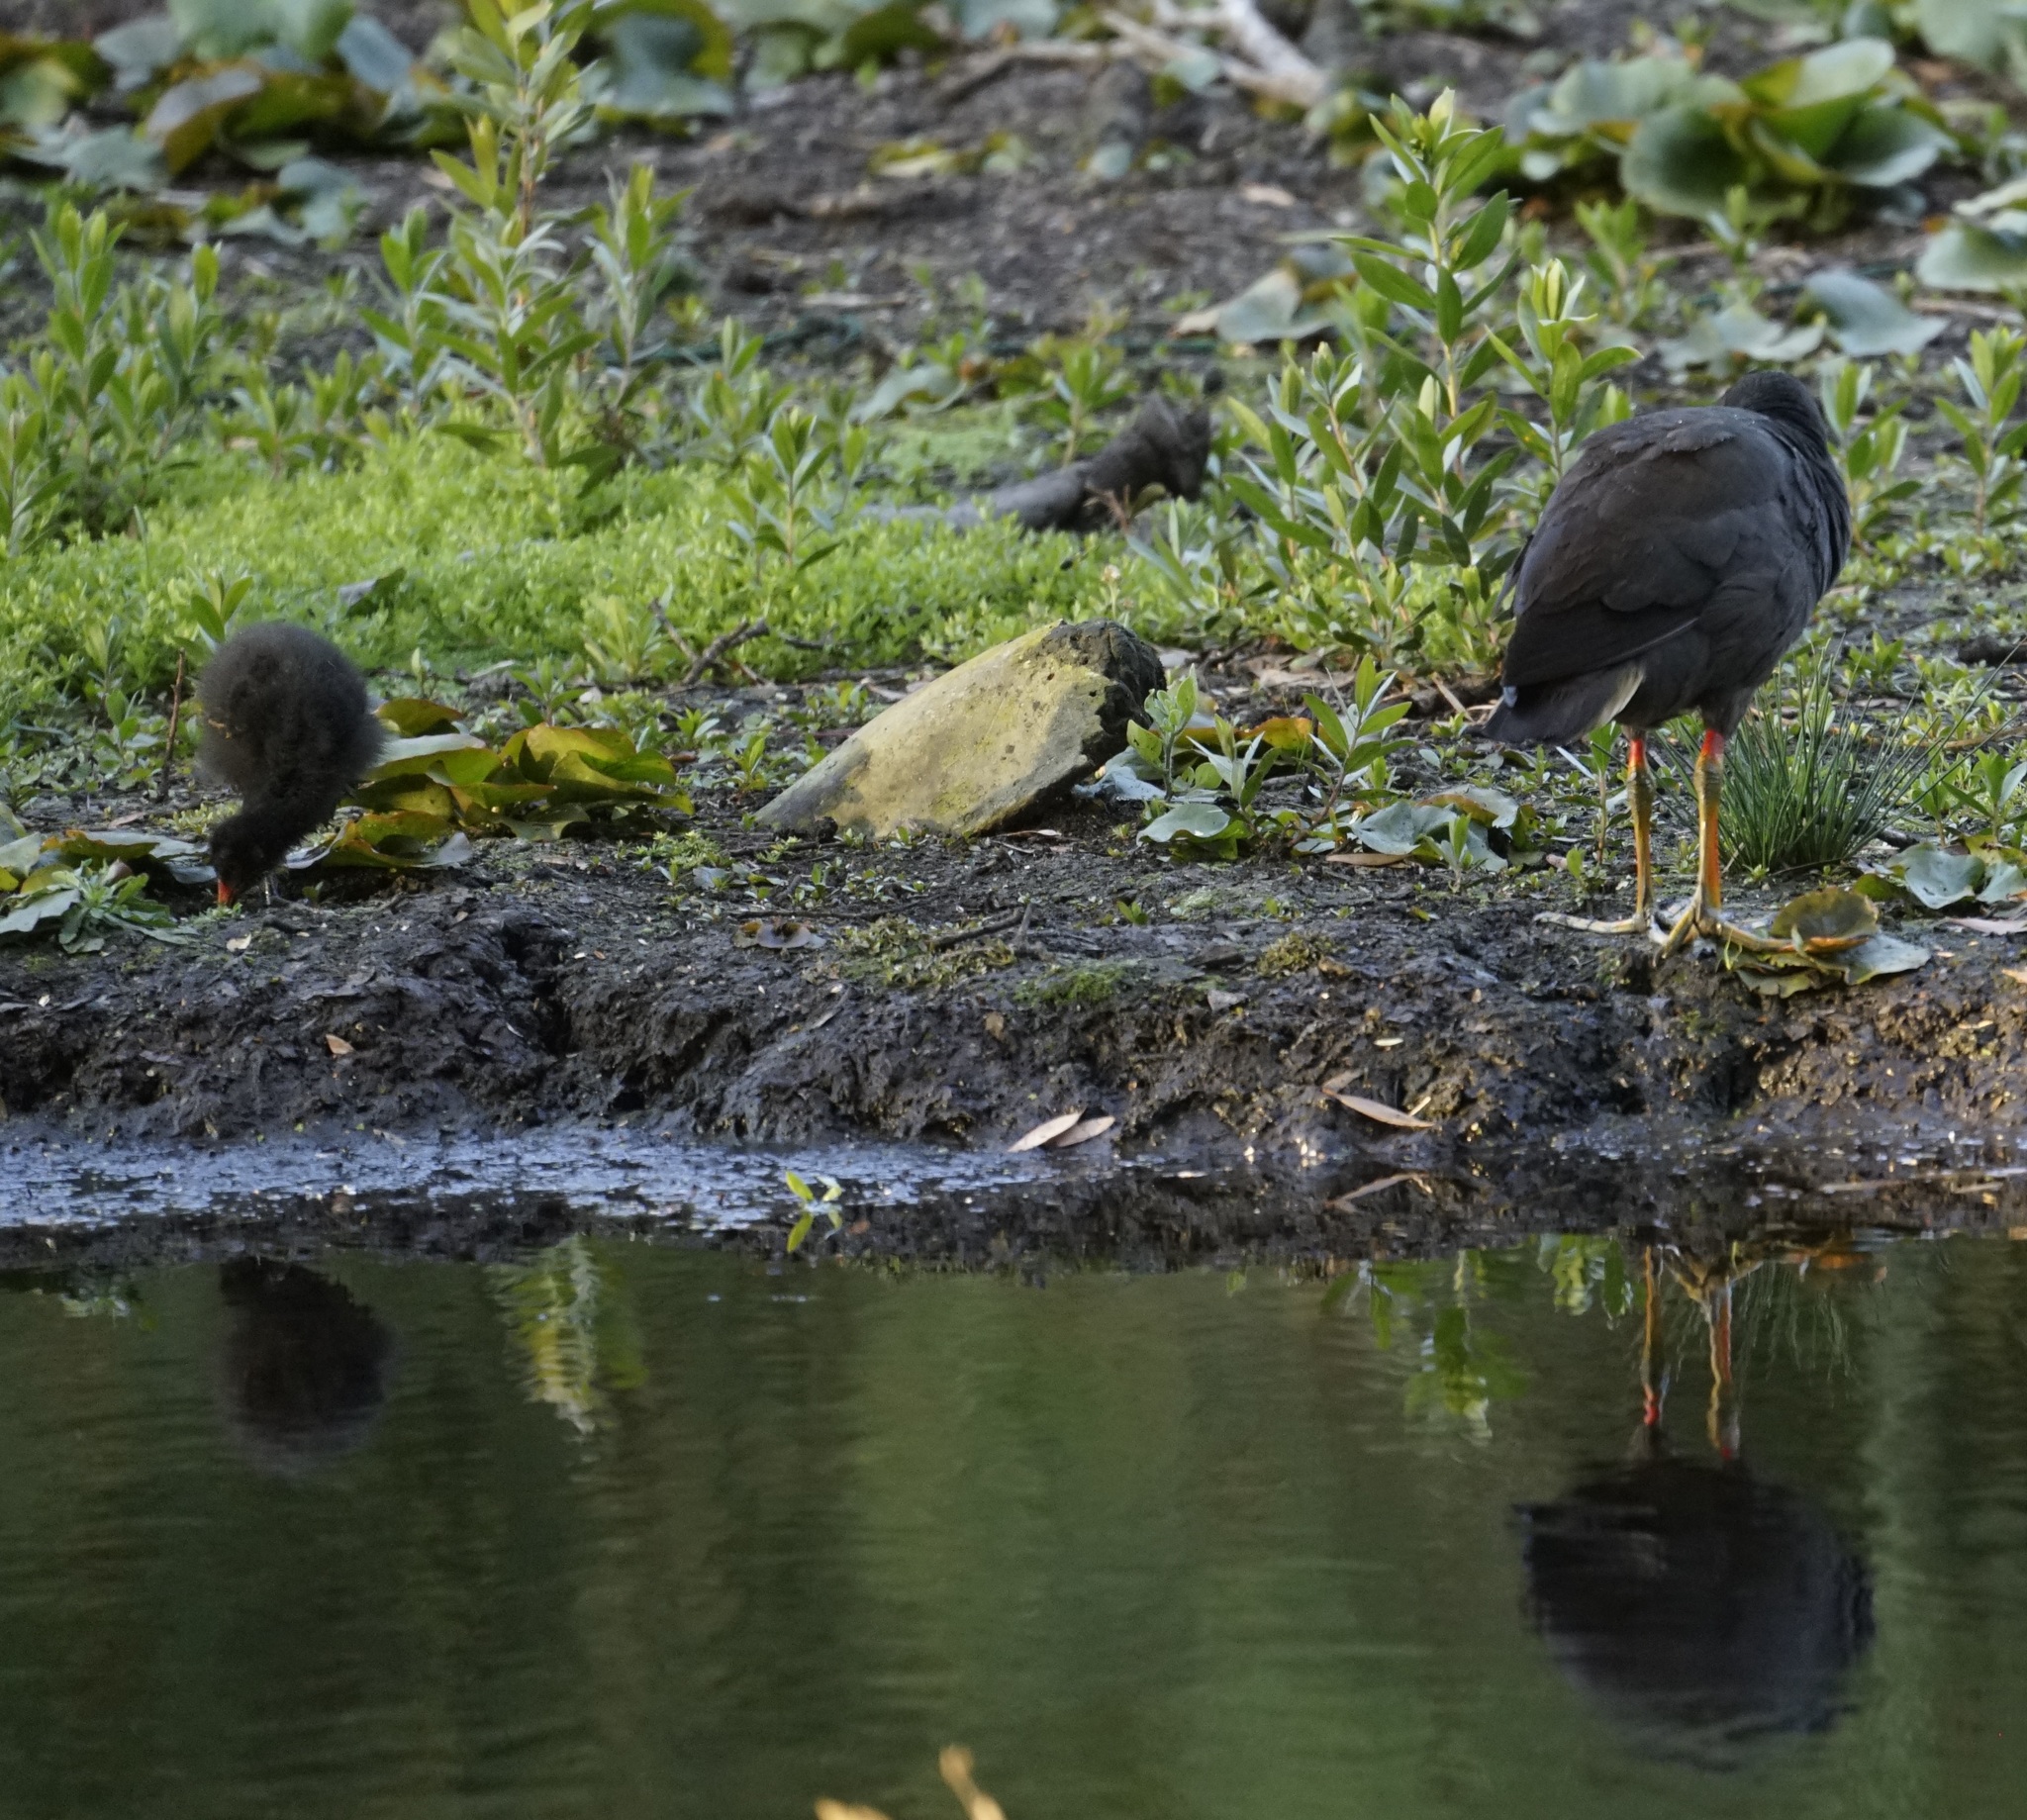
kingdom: Animalia
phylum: Chordata
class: Aves
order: Gruiformes
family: Rallidae
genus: Gallinula
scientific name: Gallinula tenebrosa
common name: Dusky moorhen
